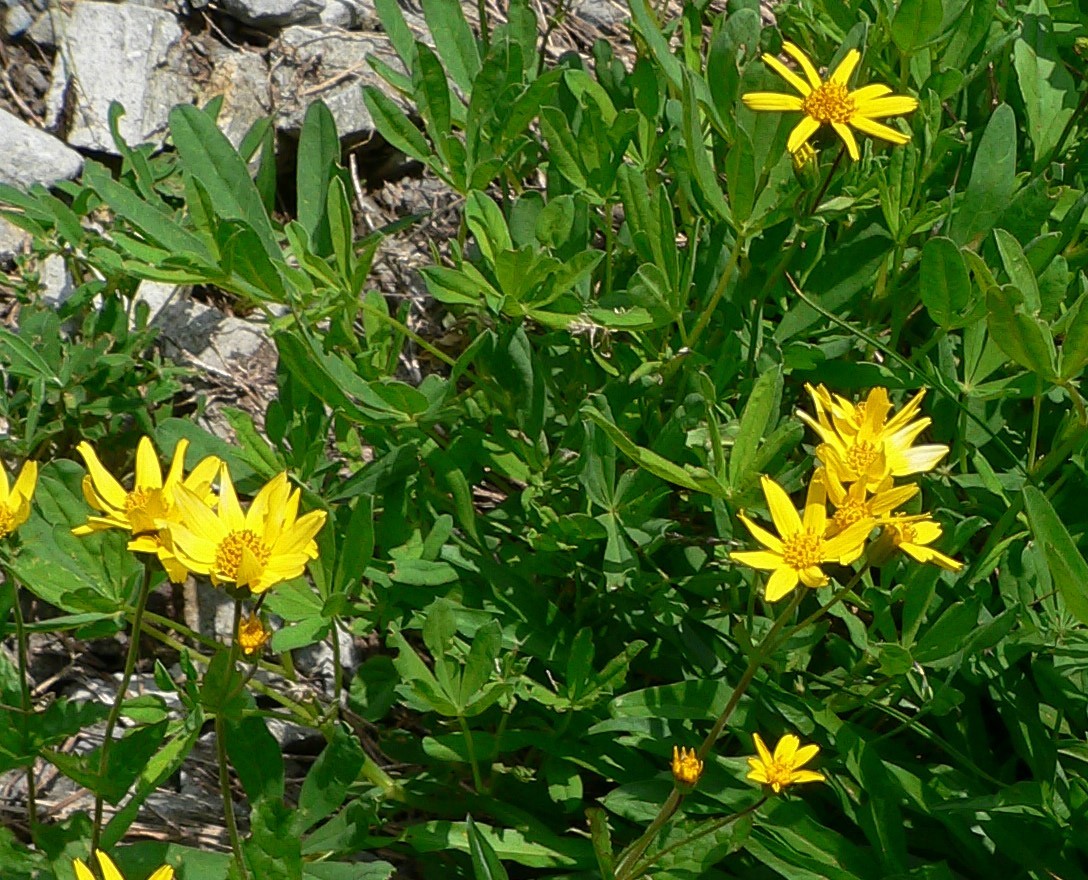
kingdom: Plantae
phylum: Tracheophyta
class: Magnoliopsida
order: Asterales
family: Asteraceae
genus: Arnica
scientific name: Arnica latifolia
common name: Arnica
